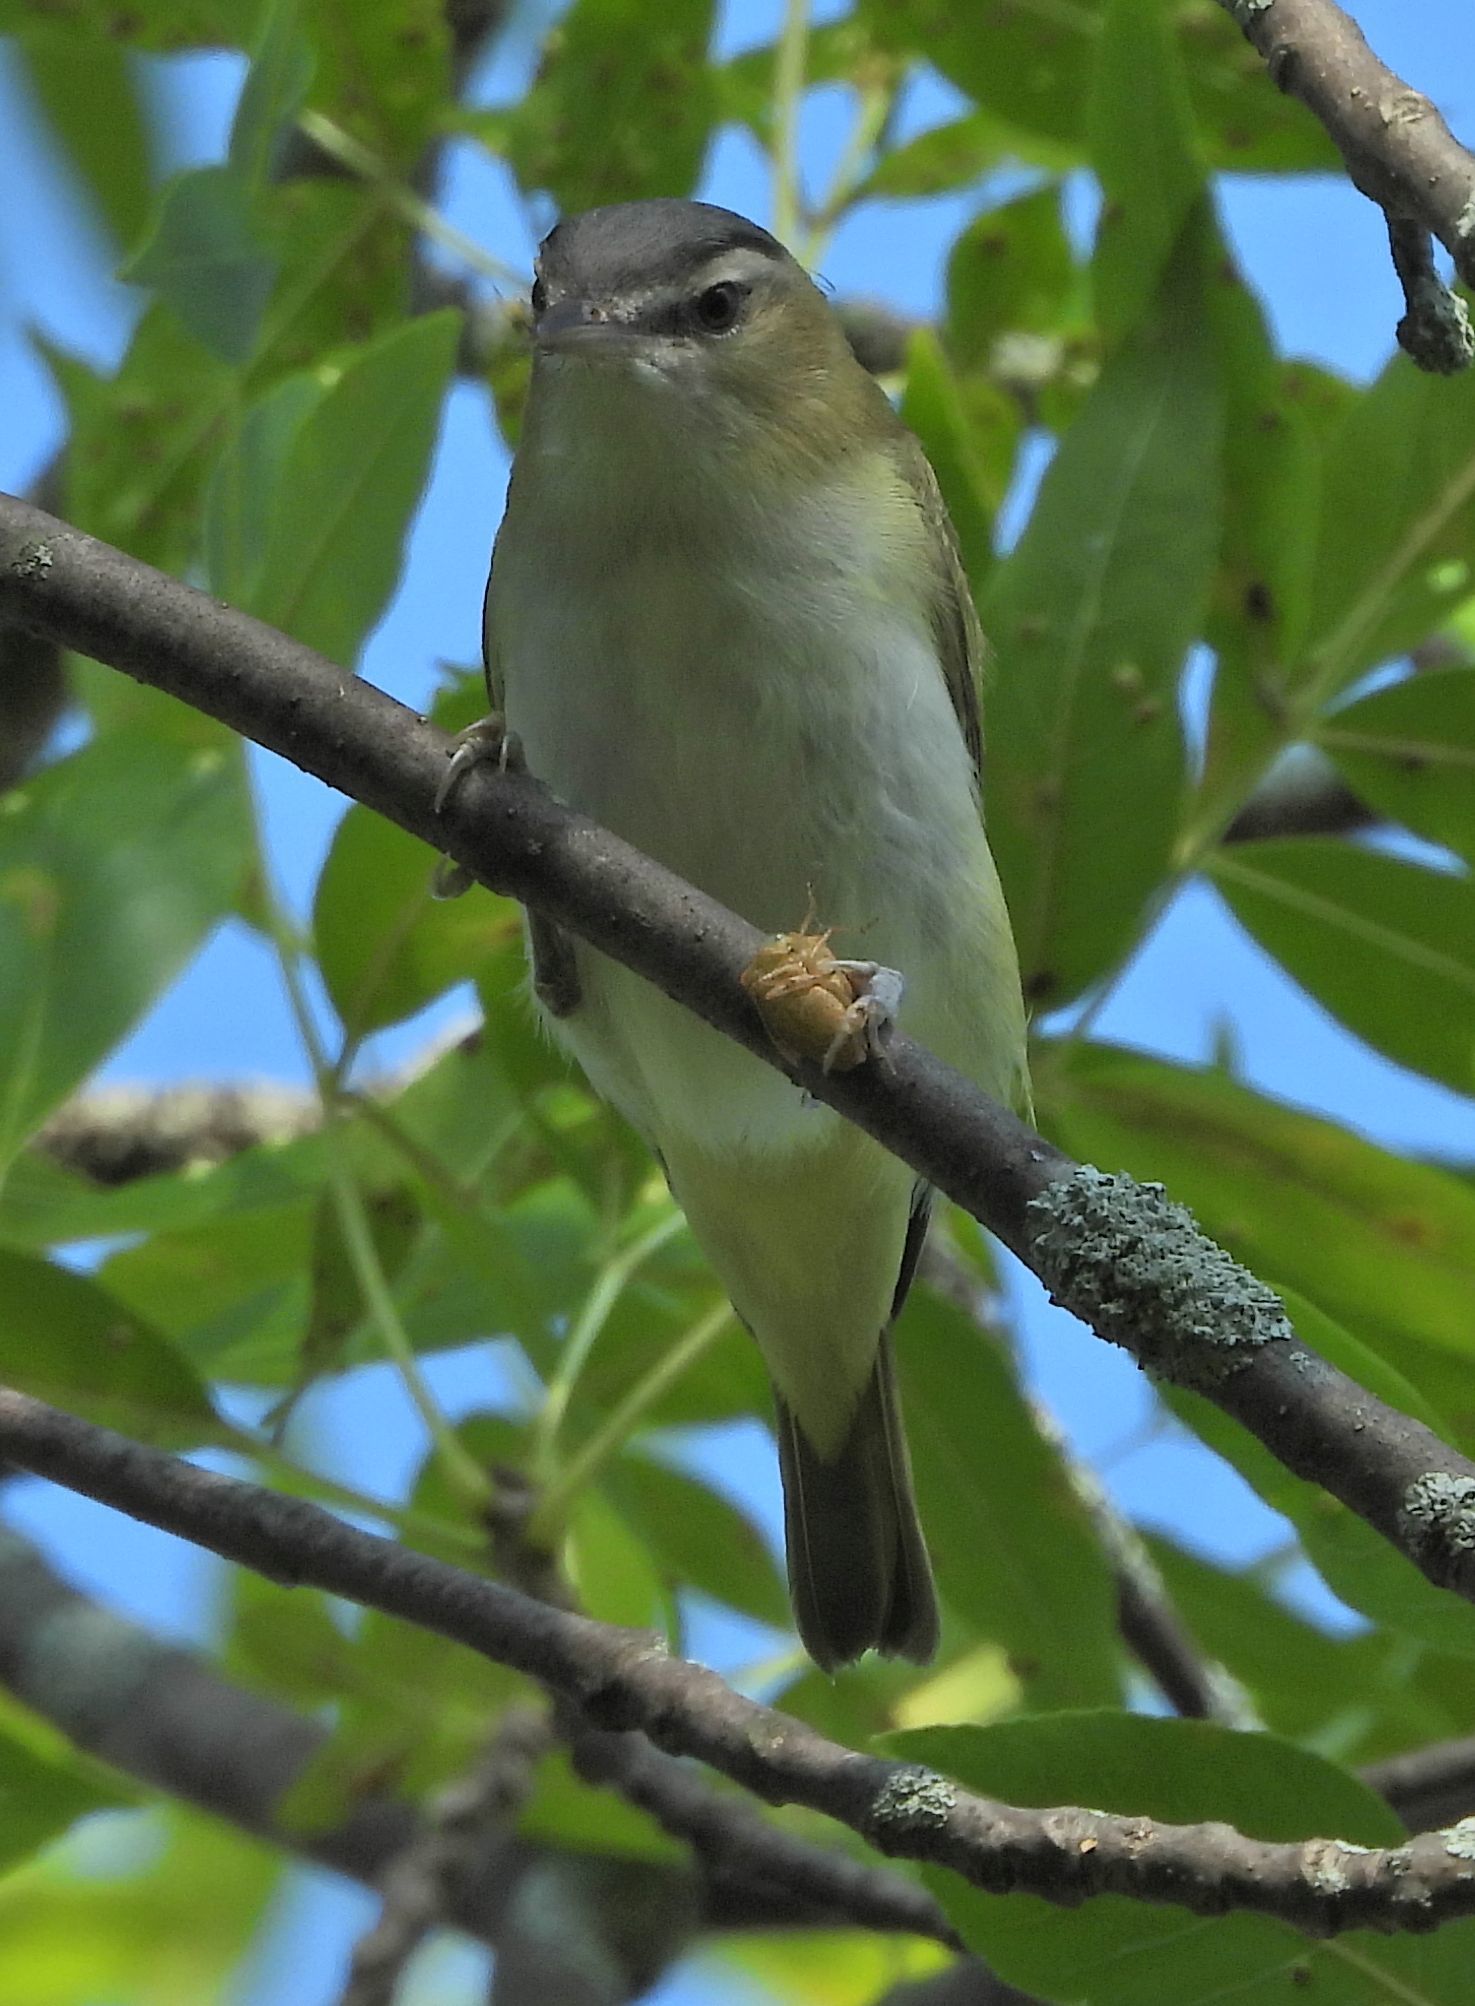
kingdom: Animalia
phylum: Chordata
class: Aves
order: Passeriformes
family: Vireonidae
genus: Vireo
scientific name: Vireo olivaceus
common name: Red-eyed vireo
